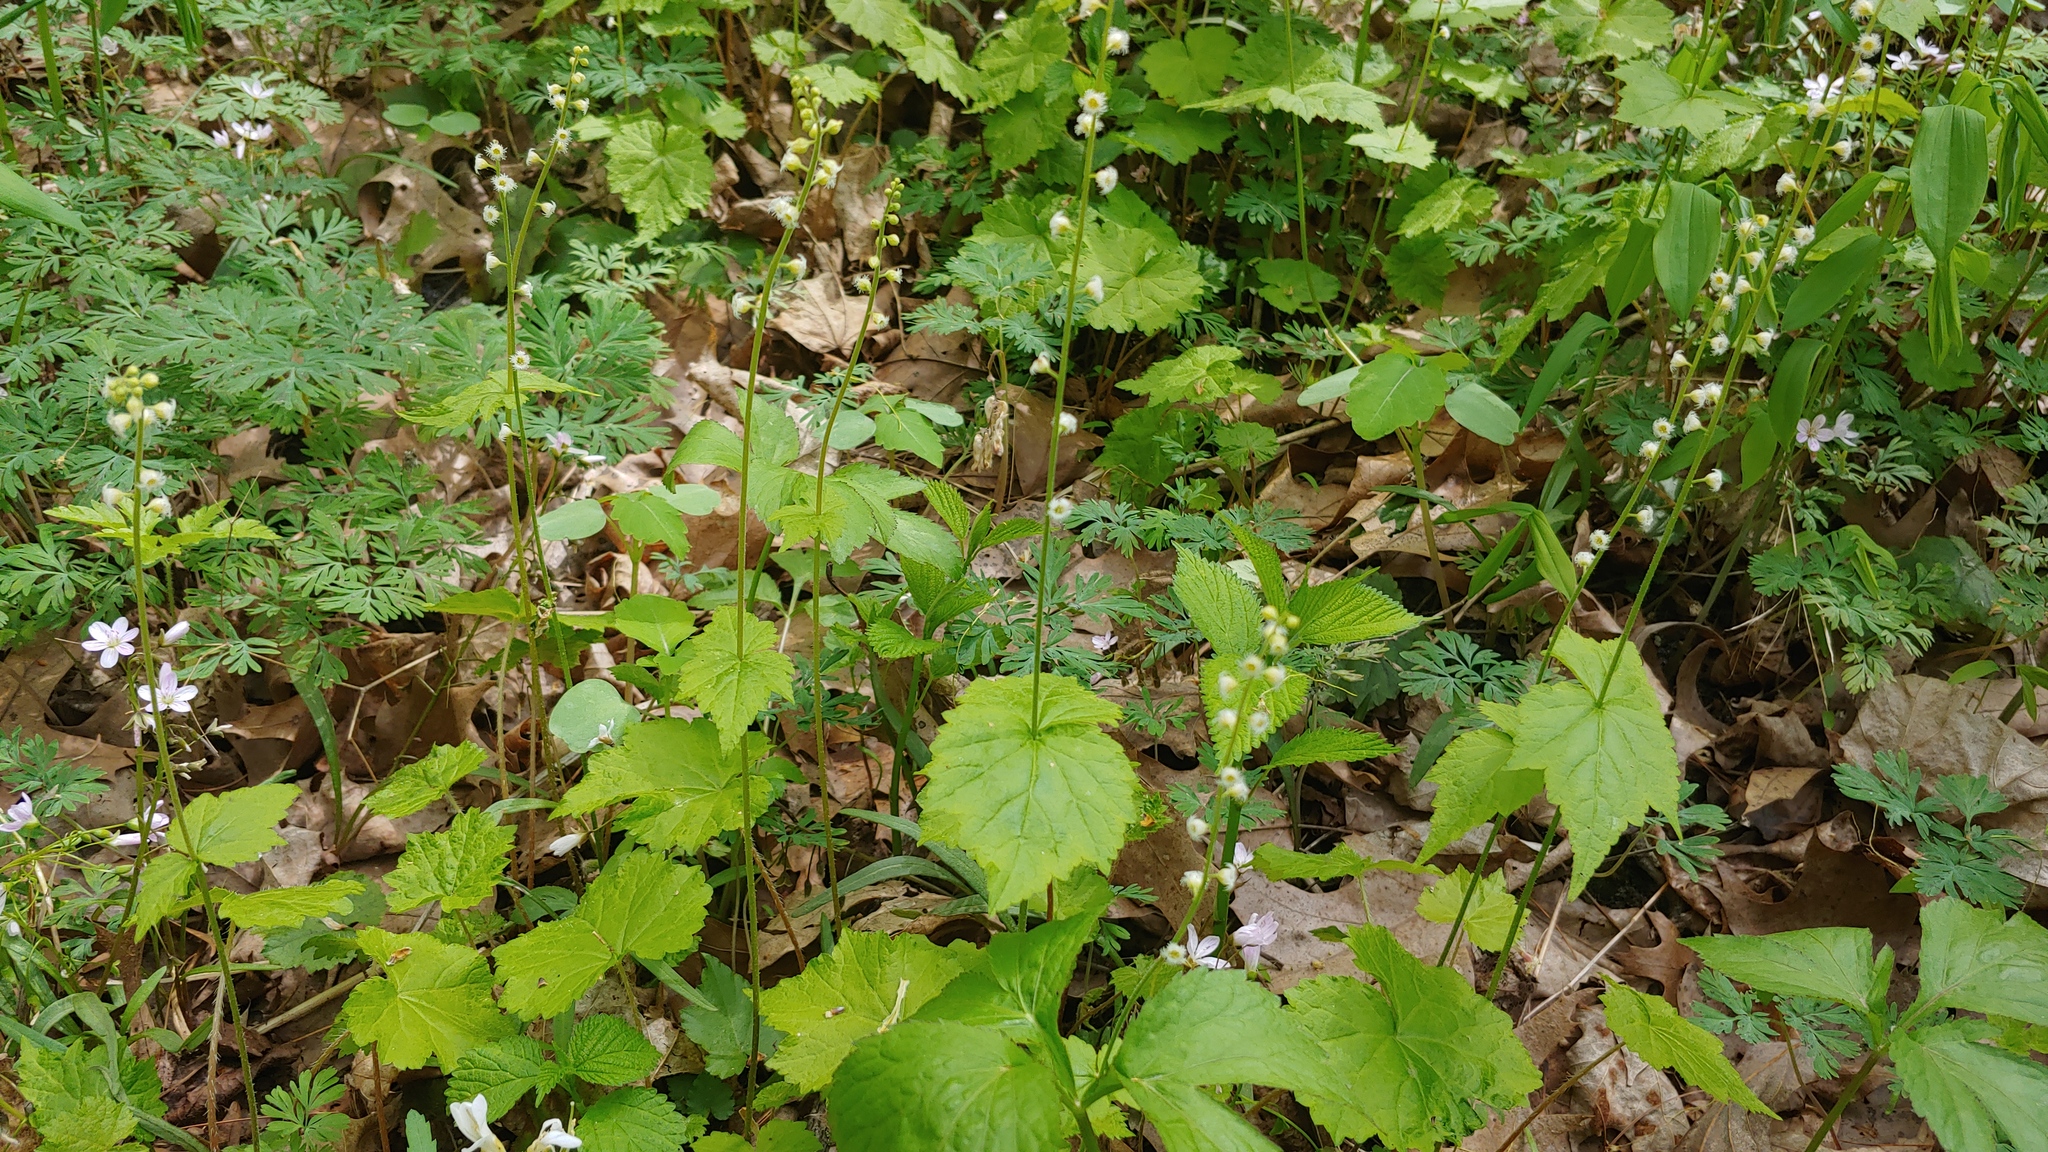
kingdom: Plantae
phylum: Tracheophyta
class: Magnoliopsida
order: Saxifragales
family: Saxifragaceae
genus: Mitella
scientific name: Mitella diphylla
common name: Coolwort
